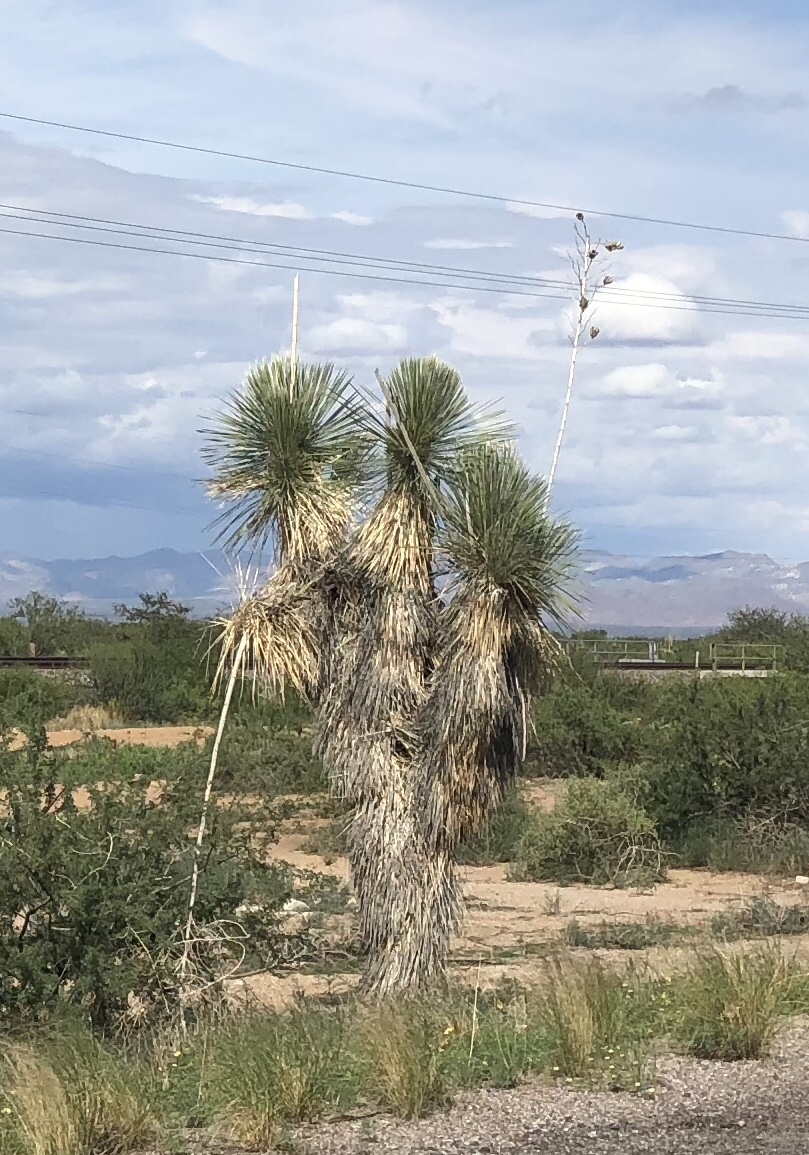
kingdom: Plantae
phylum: Tracheophyta
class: Liliopsida
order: Asparagales
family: Asparagaceae
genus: Yucca
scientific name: Yucca elata
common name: Palmella
